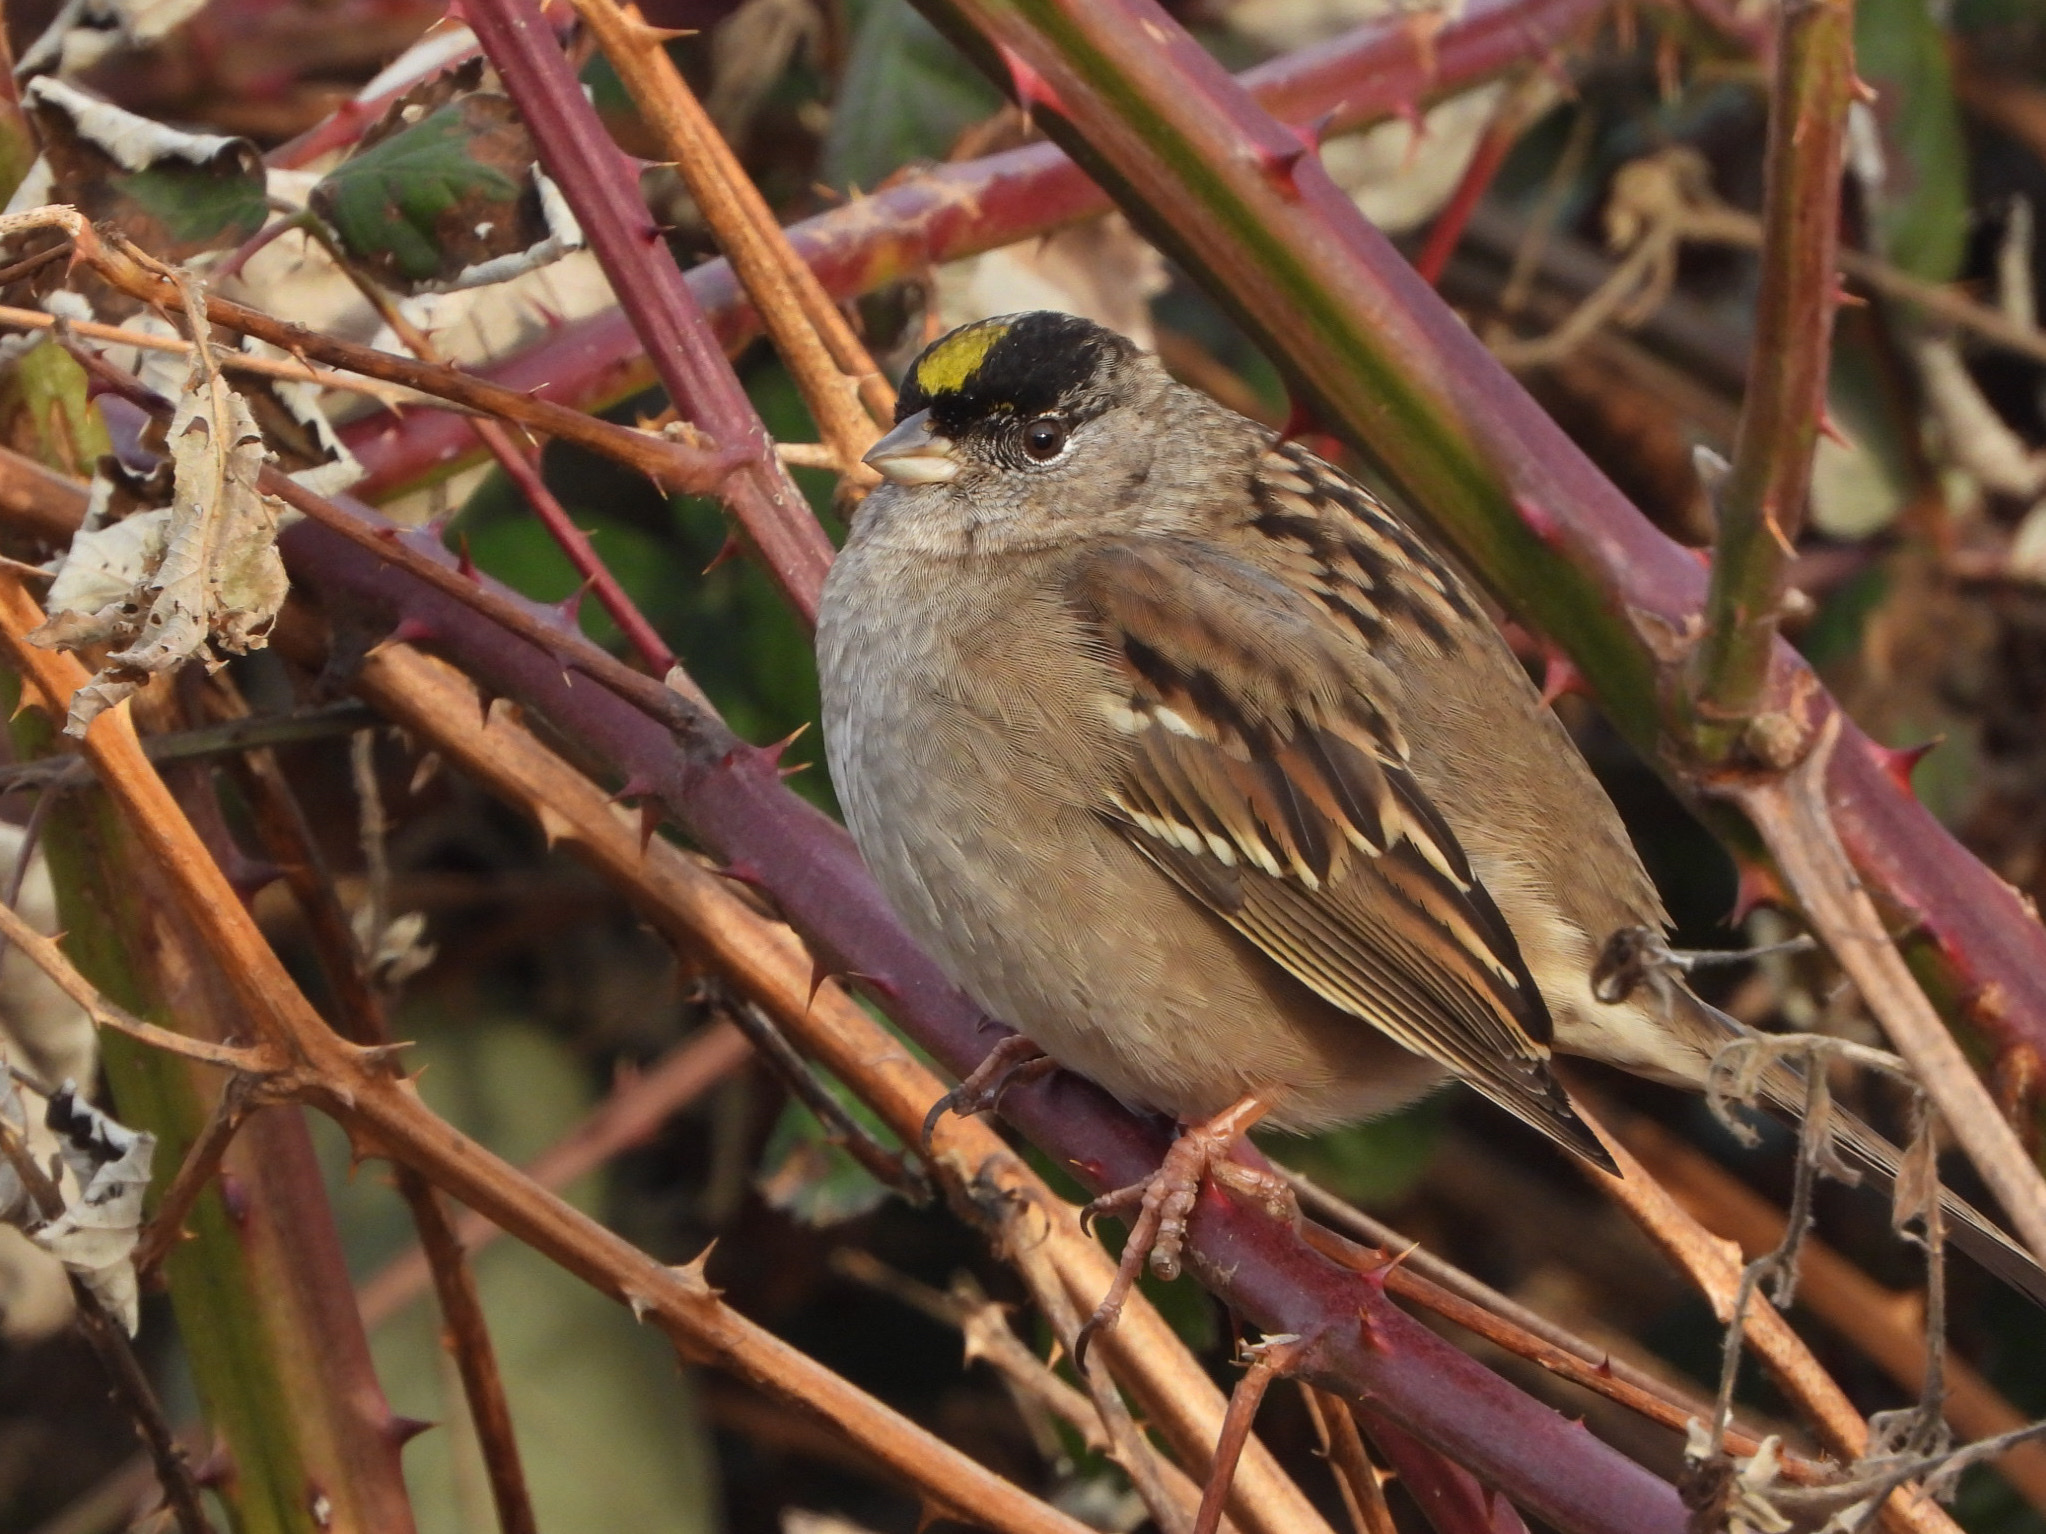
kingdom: Animalia
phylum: Chordata
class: Aves
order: Passeriformes
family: Passerellidae
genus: Zonotrichia
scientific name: Zonotrichia atricapilla
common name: Golden-crowned sparrow
